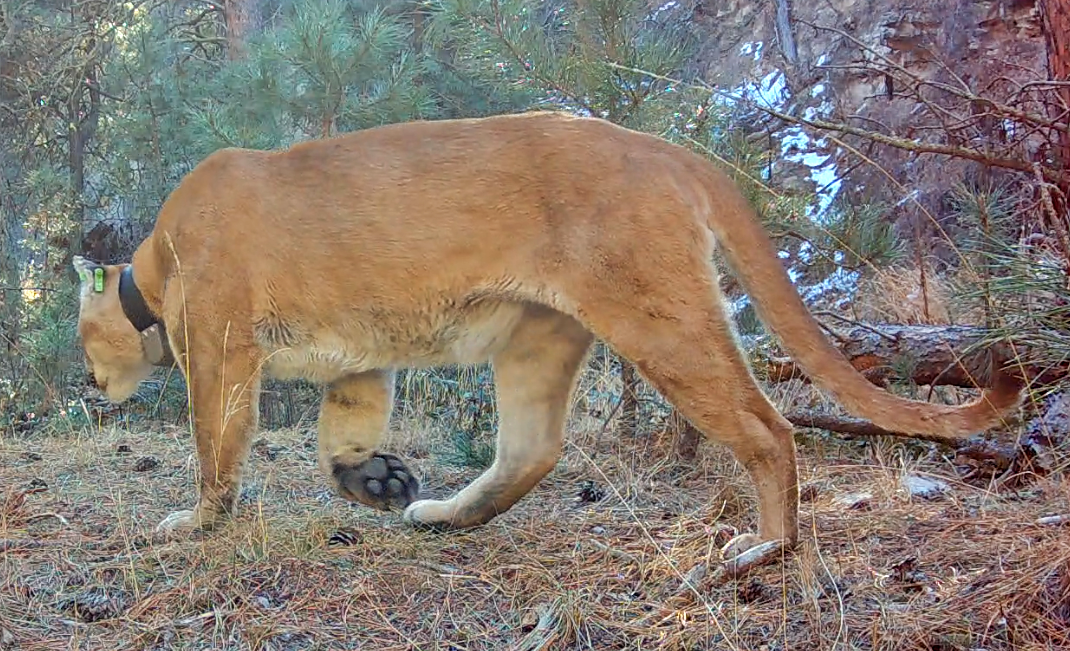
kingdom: Animalia
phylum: Chordata
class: Mammalia
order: Carnivora
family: Felidae
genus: Puma
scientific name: Puma concolor
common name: Puma
